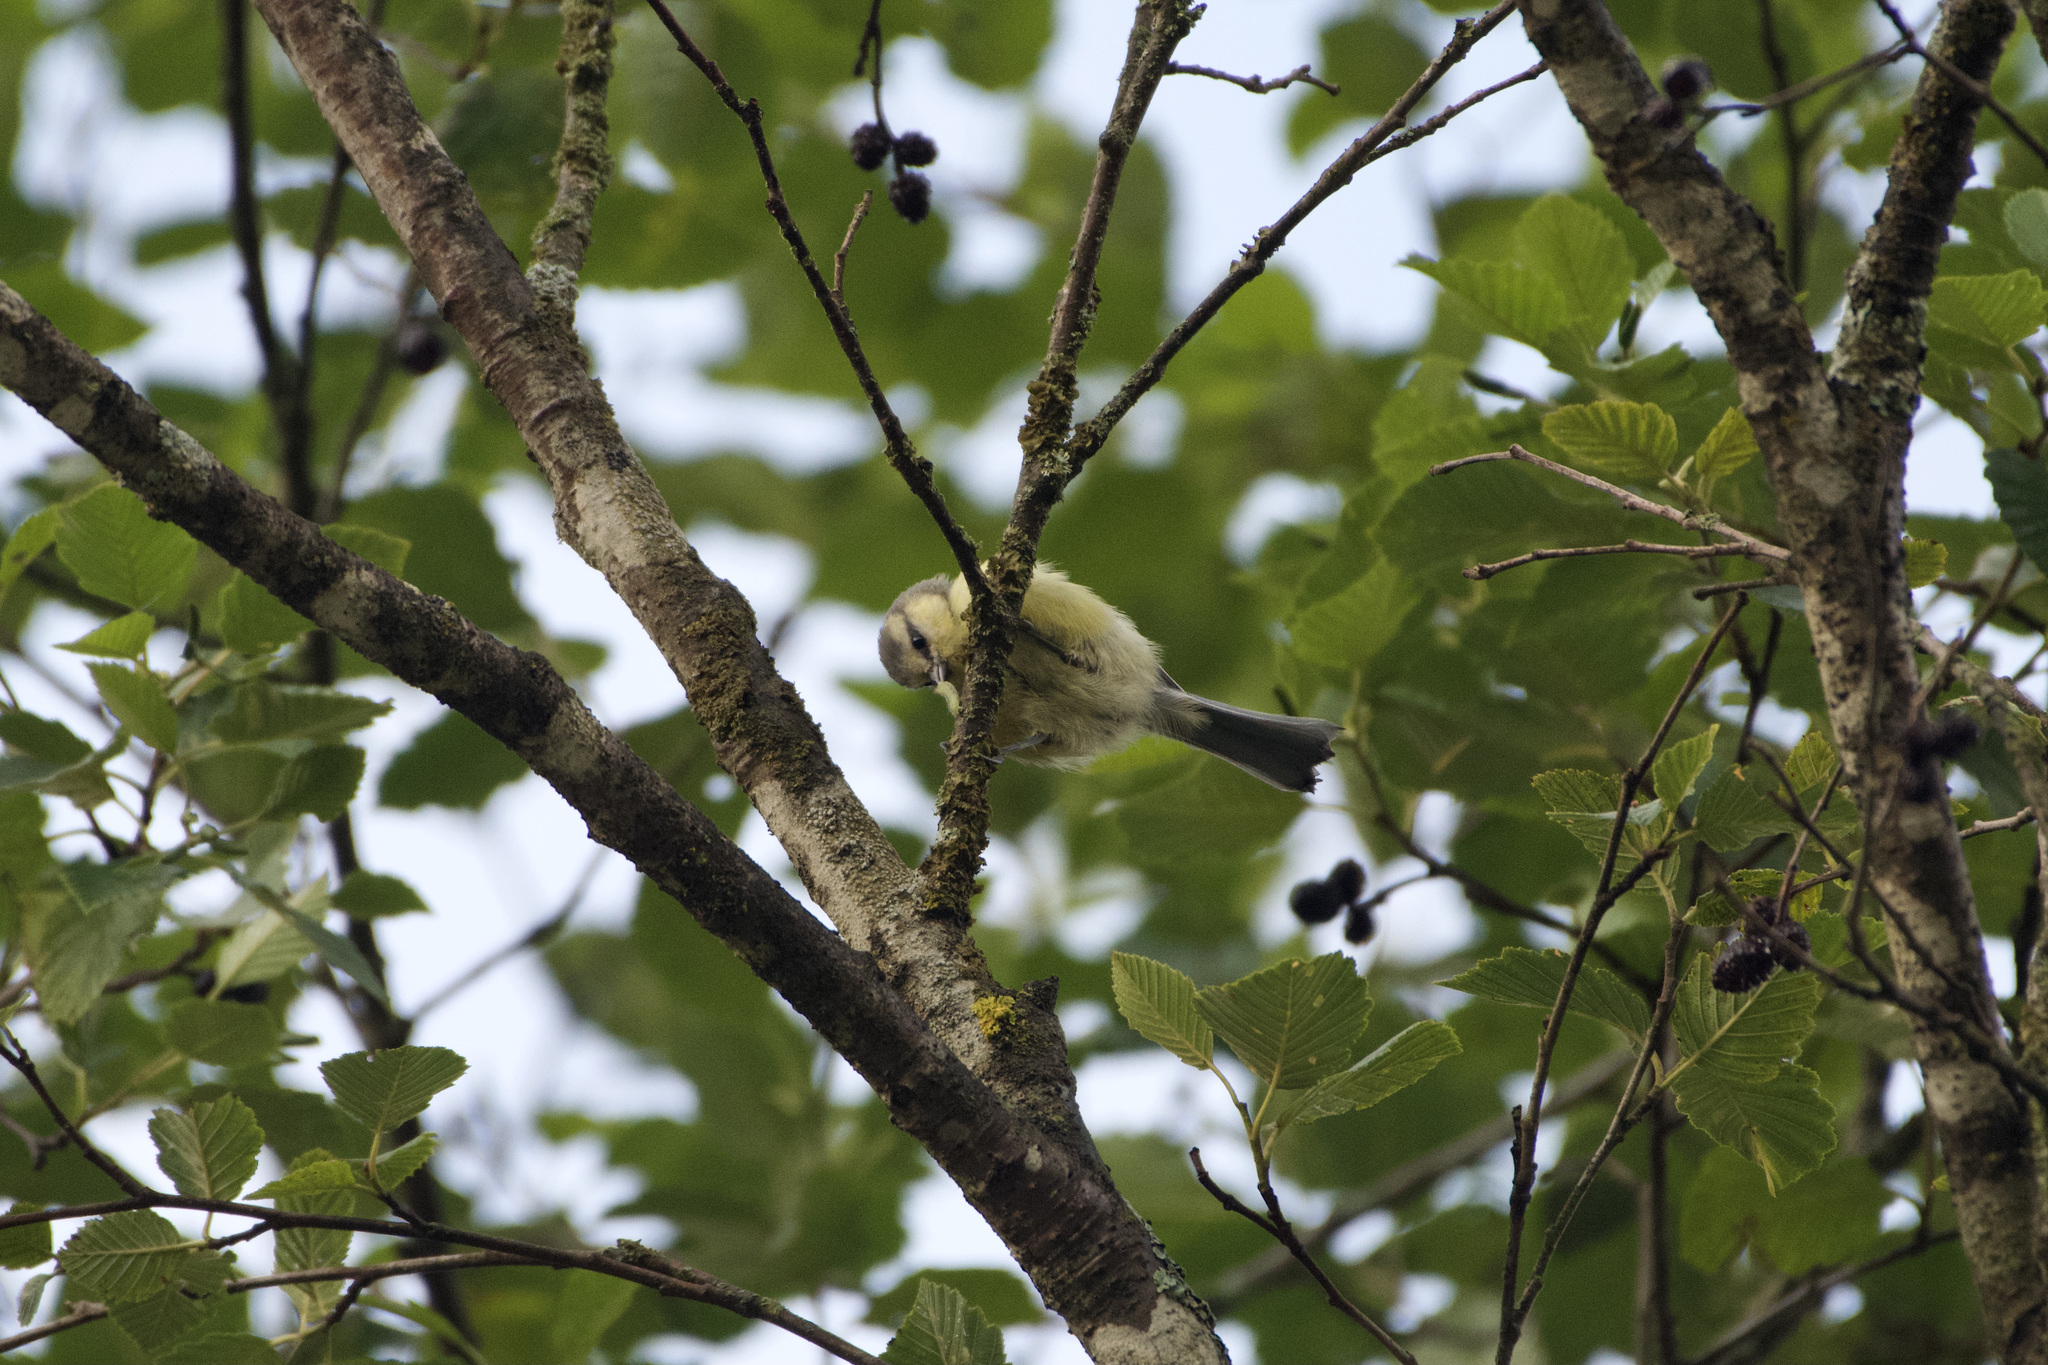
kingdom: Animalia
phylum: Chordata
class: Aves
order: Passeriformes
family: Paridae
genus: Cyanistes
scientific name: Cyanistes caeruleus
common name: Eurasian blue tit
